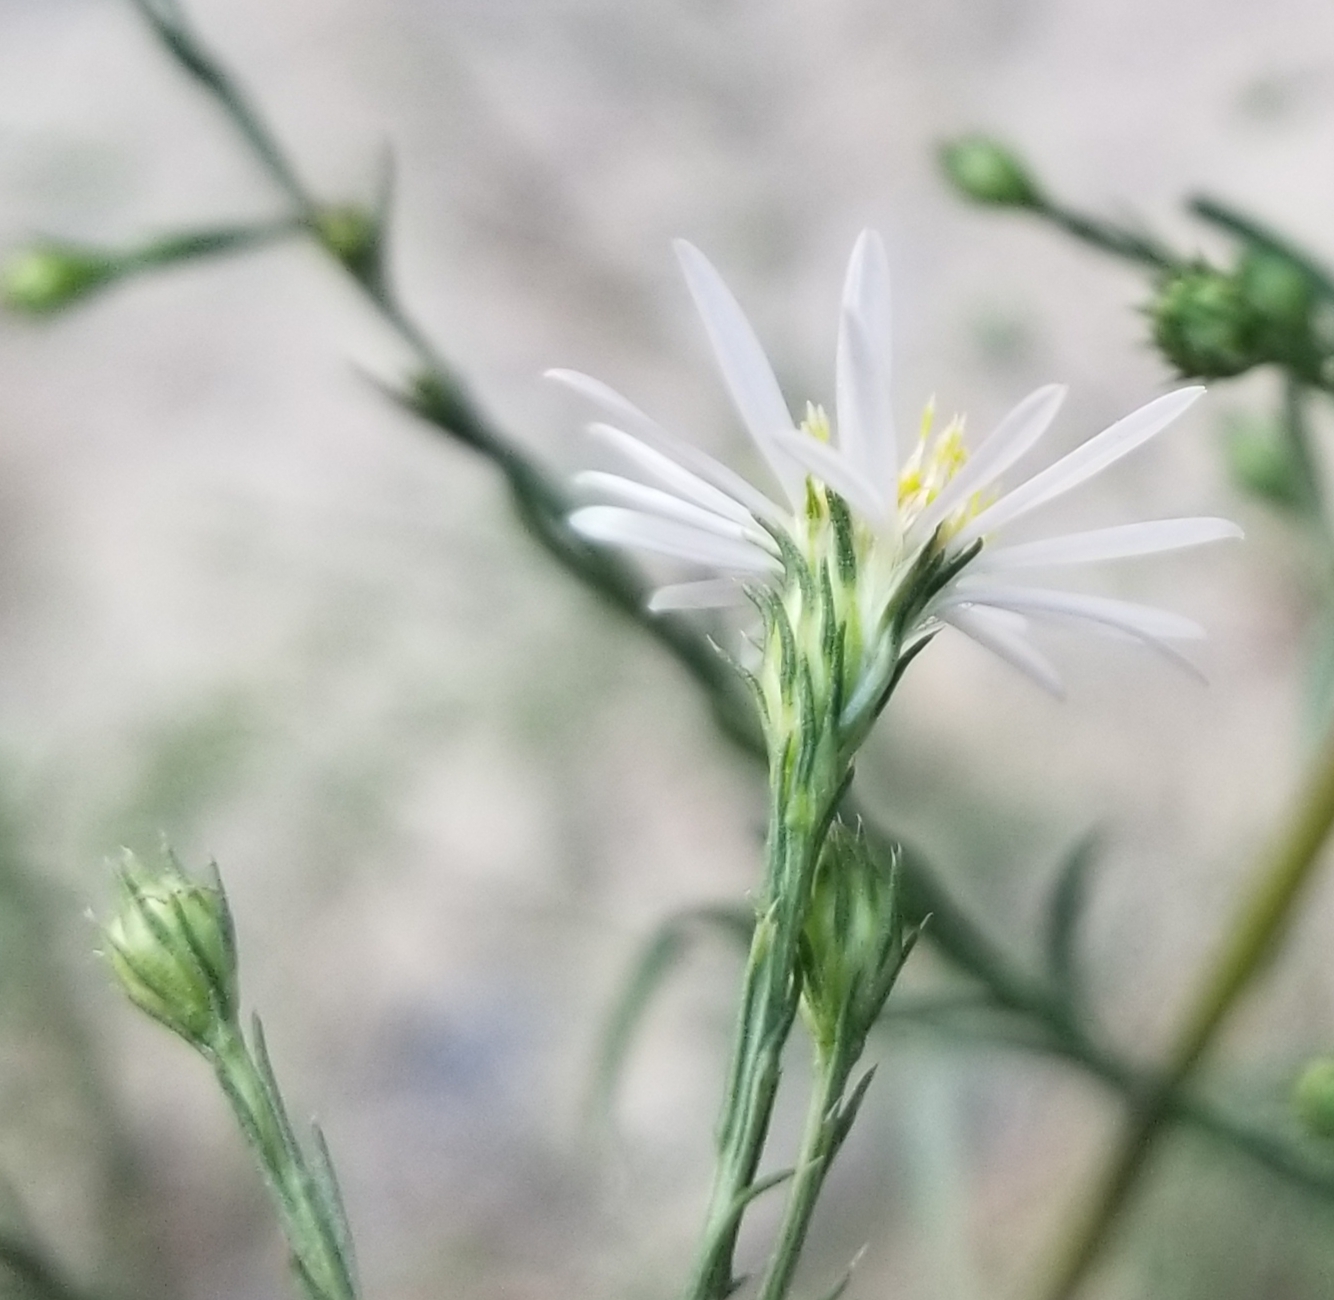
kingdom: Plantae
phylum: Tracheophyta
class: Magnoliopsida
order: Asterales
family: Asteraceae
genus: Symphyotrichum
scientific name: Symphyotrichum pilosum
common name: Awl aster
